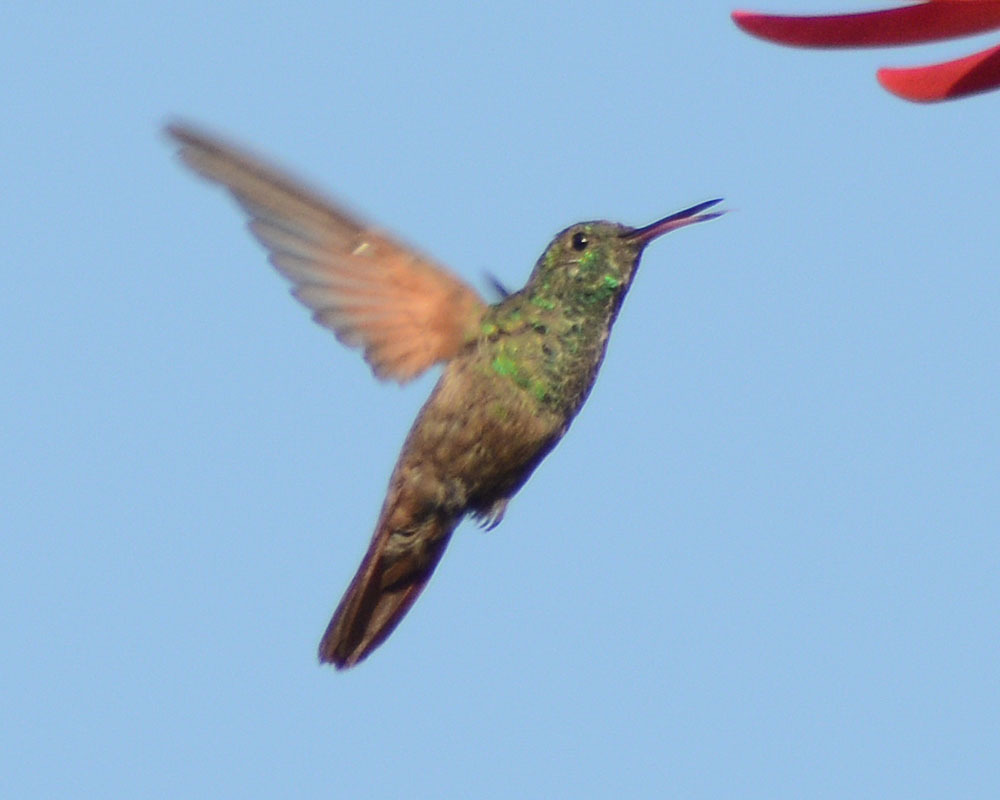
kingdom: Animalia
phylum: Chordata
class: Aves
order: Apodiformes
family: Trochilidae
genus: Saucerottia
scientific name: Saucerottia beryllina
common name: Berylline hummingbird
